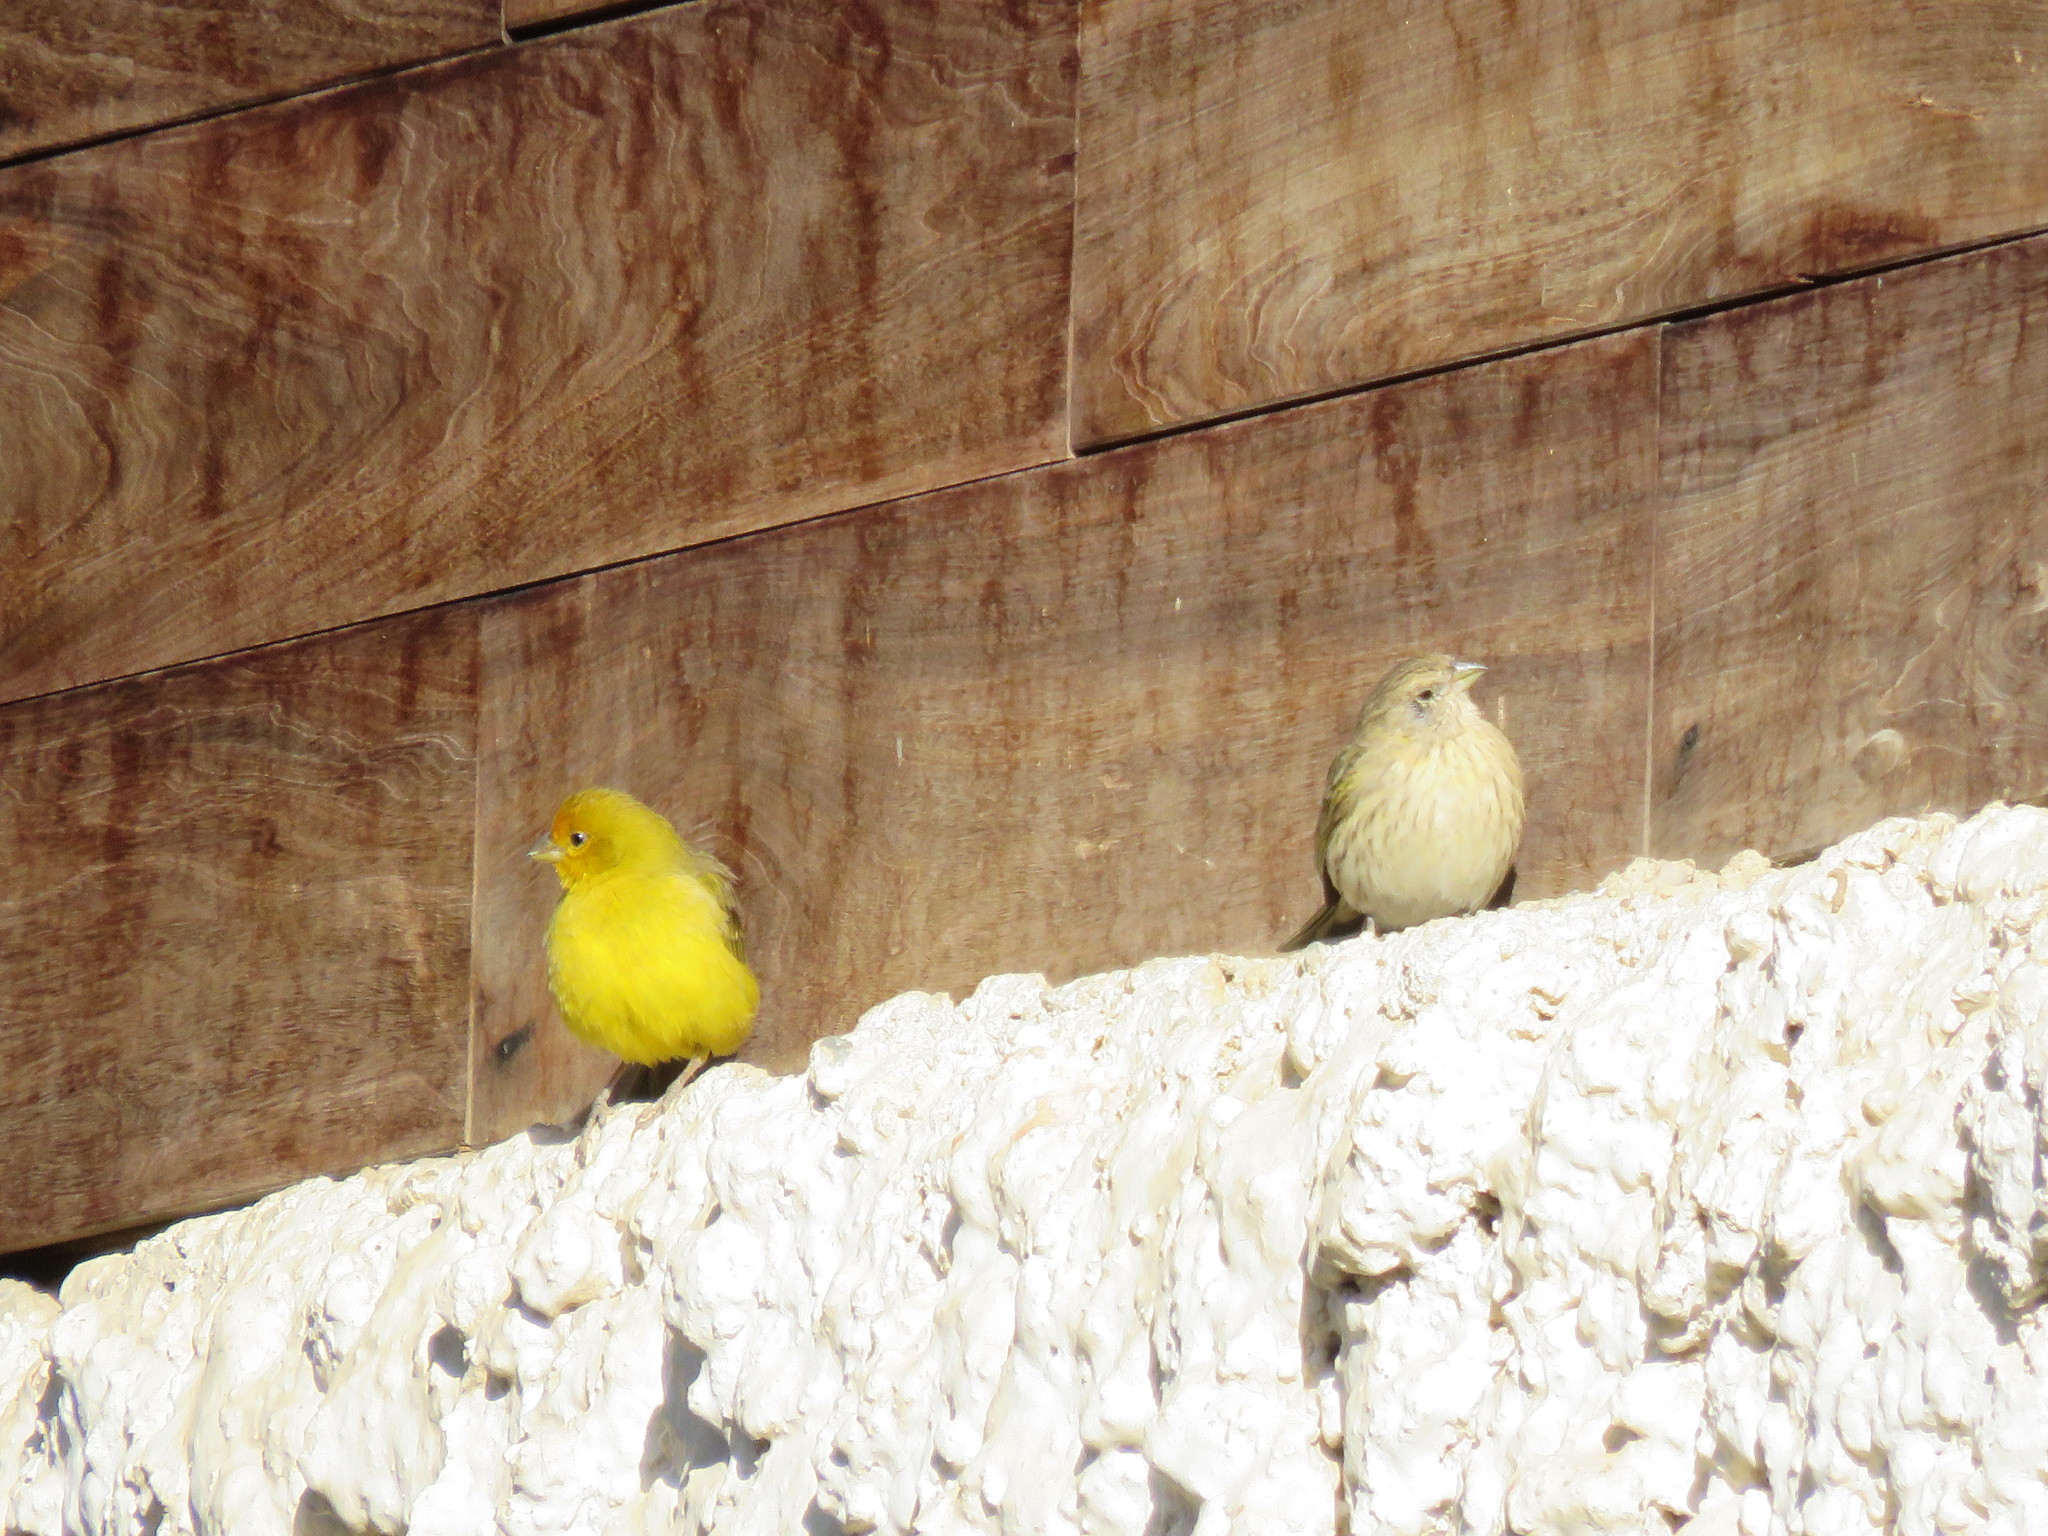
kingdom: Animalia
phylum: Chordata
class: Aves
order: Passeriformes
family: Thraupidae
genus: Sicalis
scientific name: Sicalis flaveola
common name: Saffron finch
